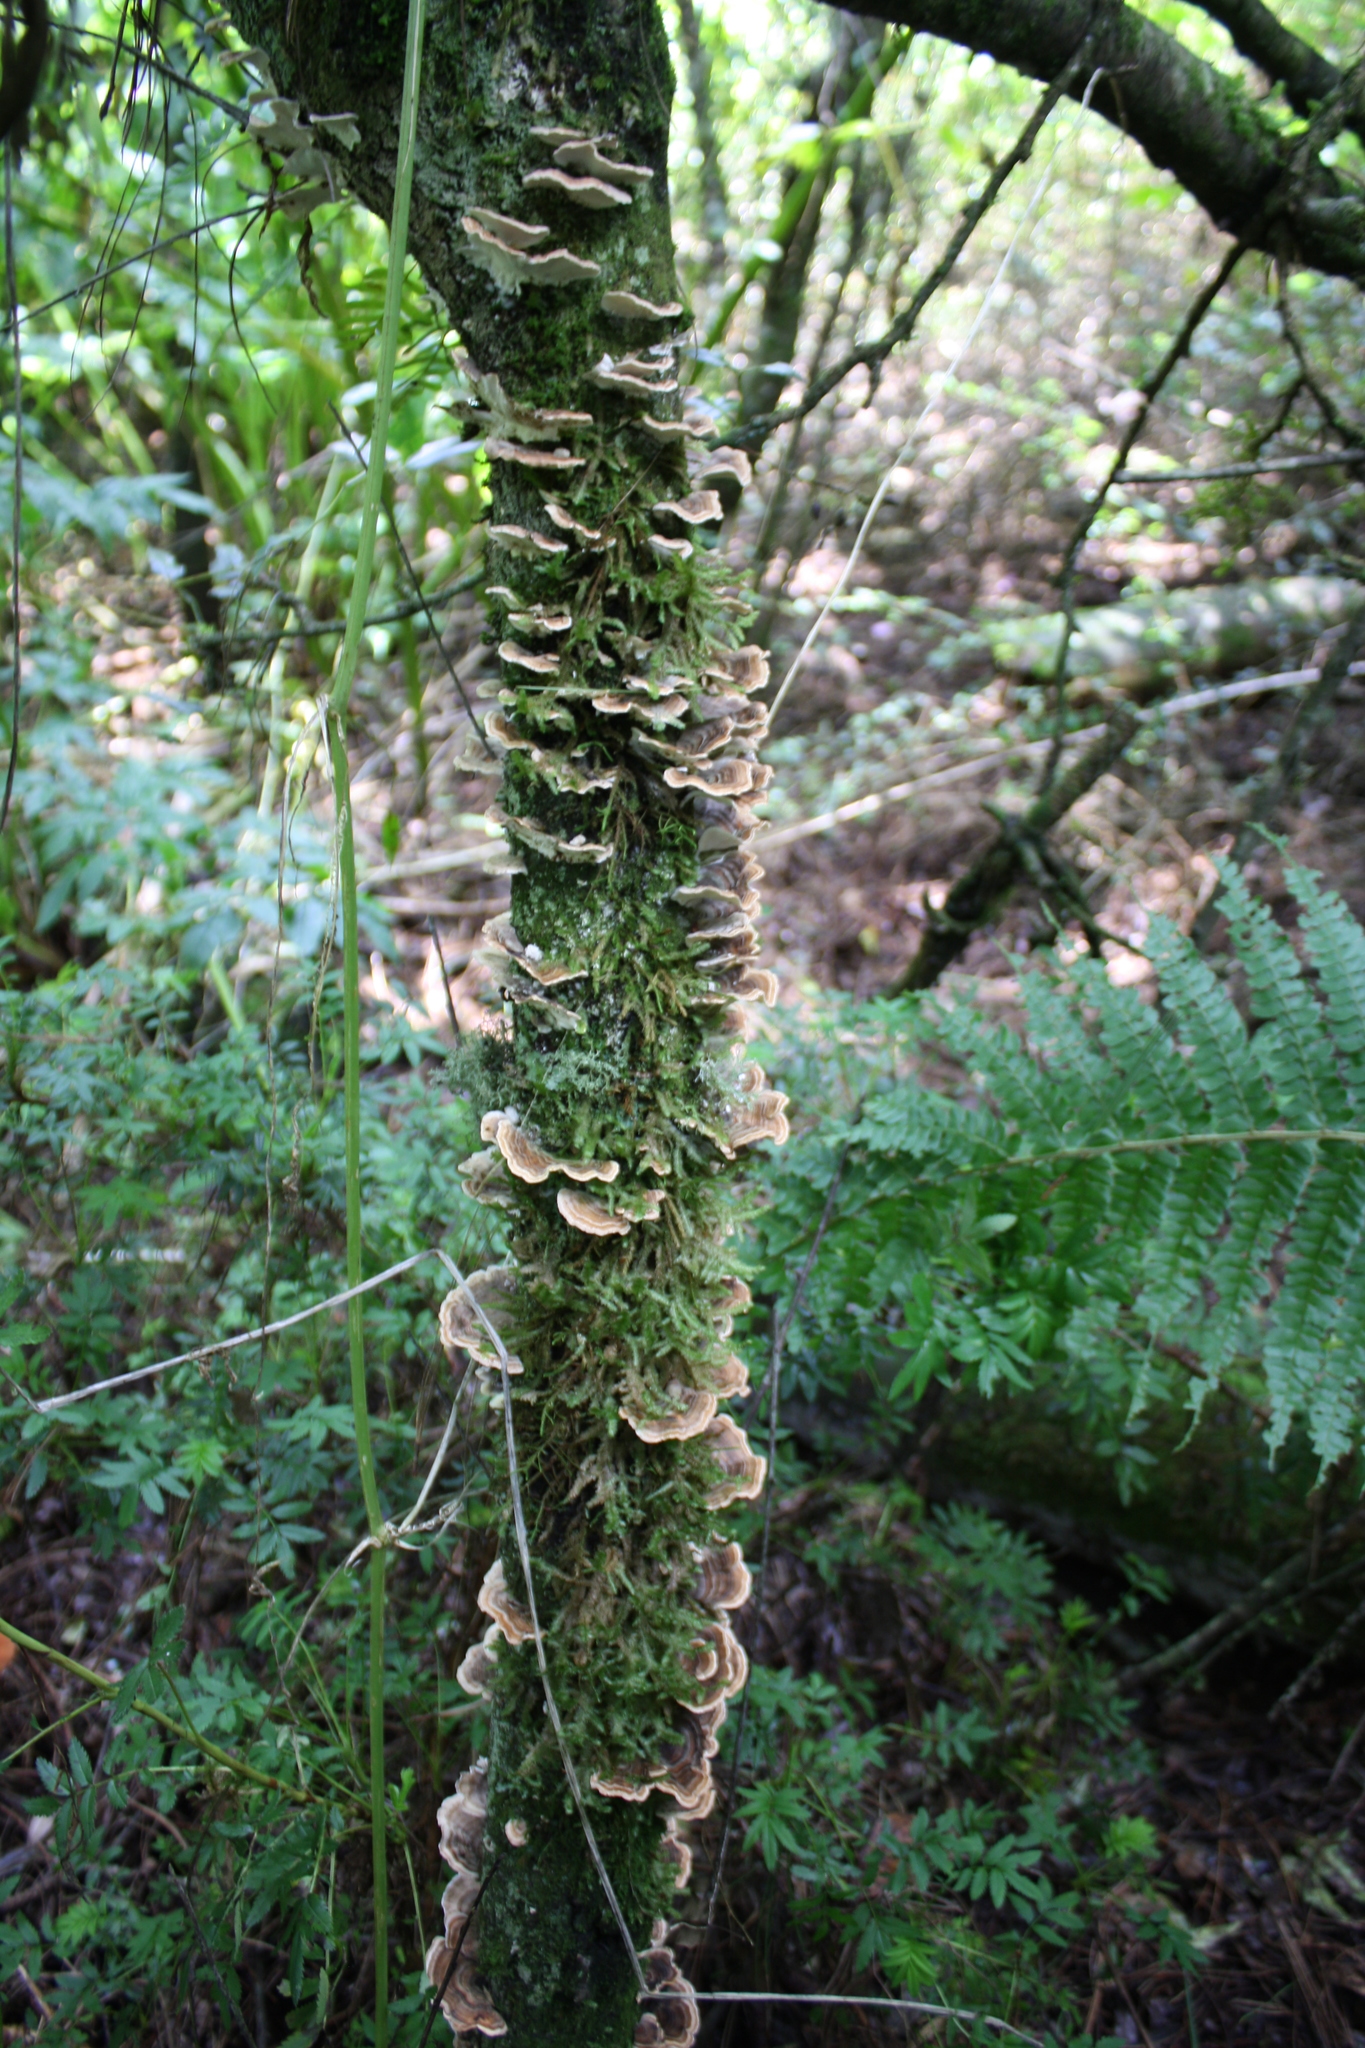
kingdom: Fungi
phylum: Basidiomycota
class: Agaricomycetes
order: Polyporales
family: Polyporaceae
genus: Trametes
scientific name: Trametes versicolor
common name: Turkeytail
